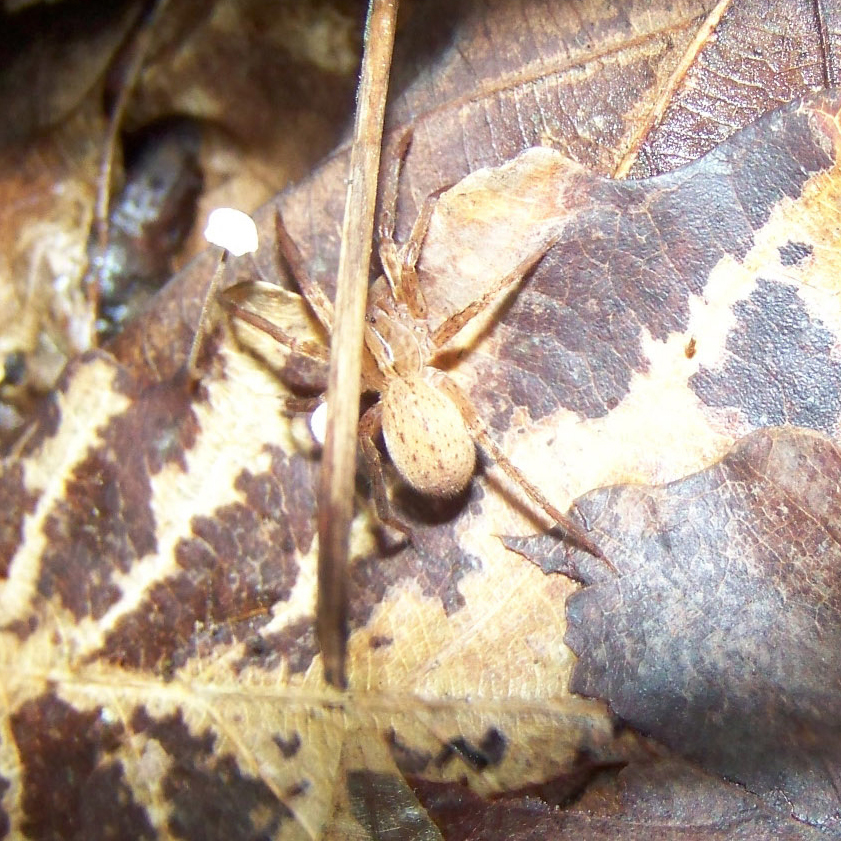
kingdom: Animalia
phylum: Arthropoda
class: Arachnida
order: Araneae
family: Ctenidae
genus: Anahita
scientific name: Anahita punctulata
